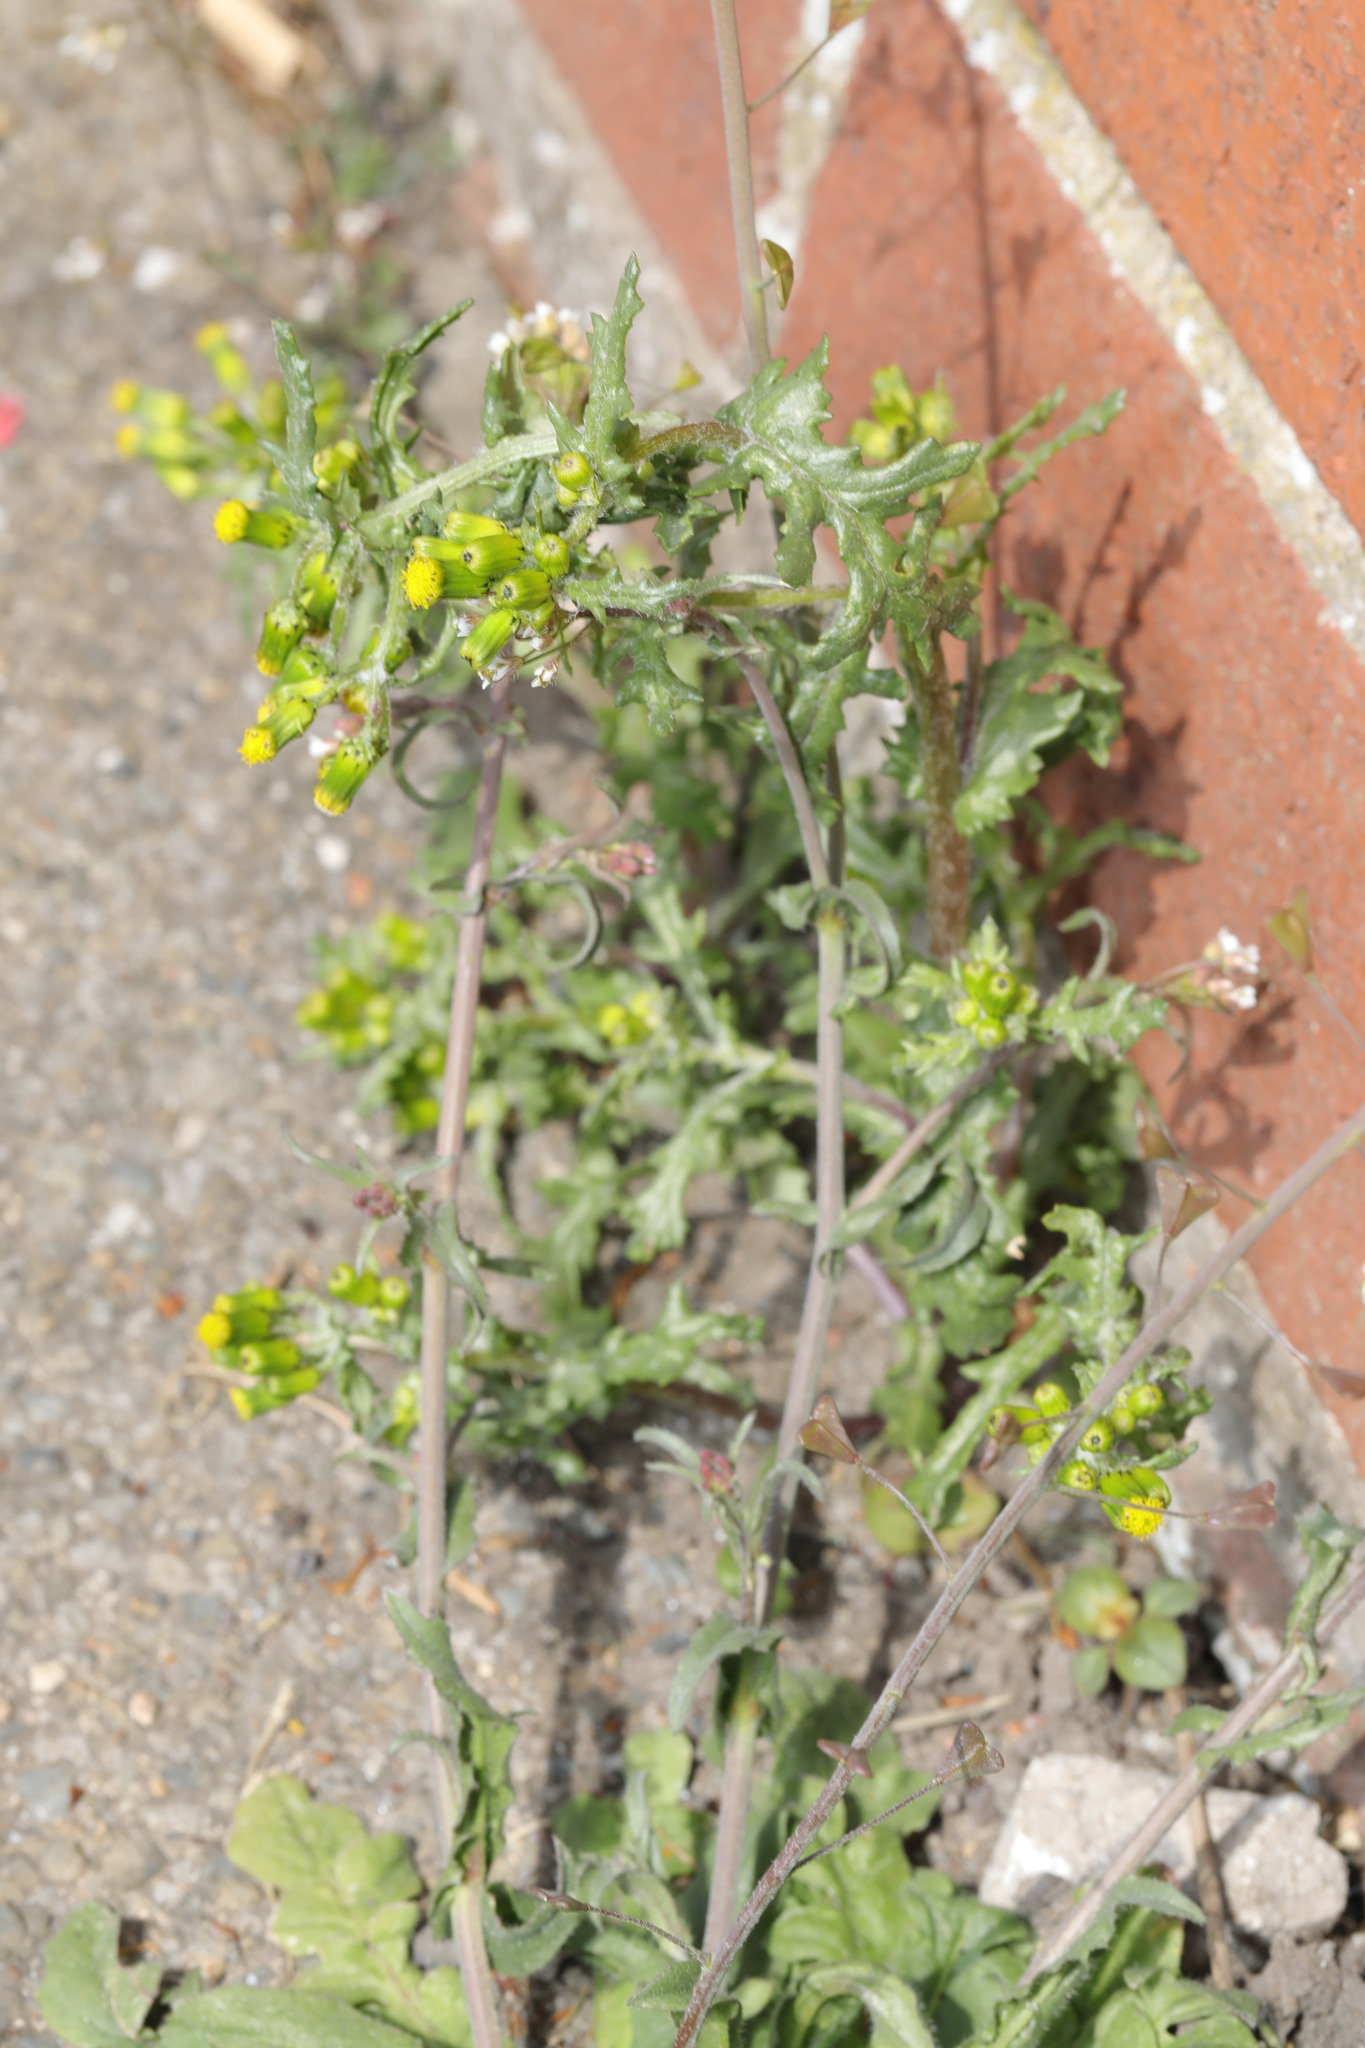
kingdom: Plantae
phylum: Tracheophyta
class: Magnoliopsida
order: Asterales
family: Asteraceae
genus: Senecio
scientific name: Senecio vulgaris
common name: Old-man-in-the-spring
